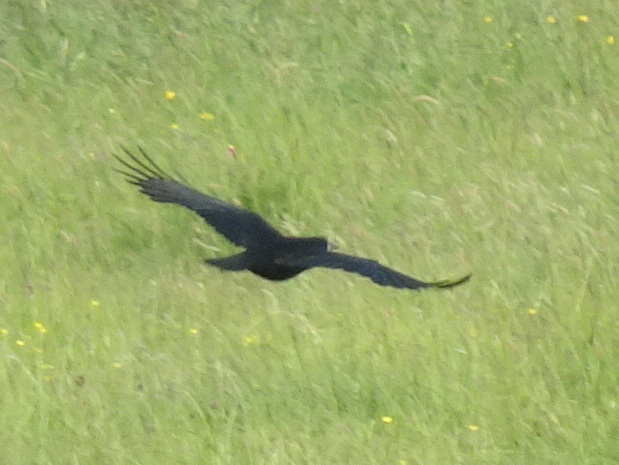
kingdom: Animalia
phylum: Chordata
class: Aves
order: Passeriformes
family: Corvidae
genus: Corvus
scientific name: Corvus frugilegus
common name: Rook
